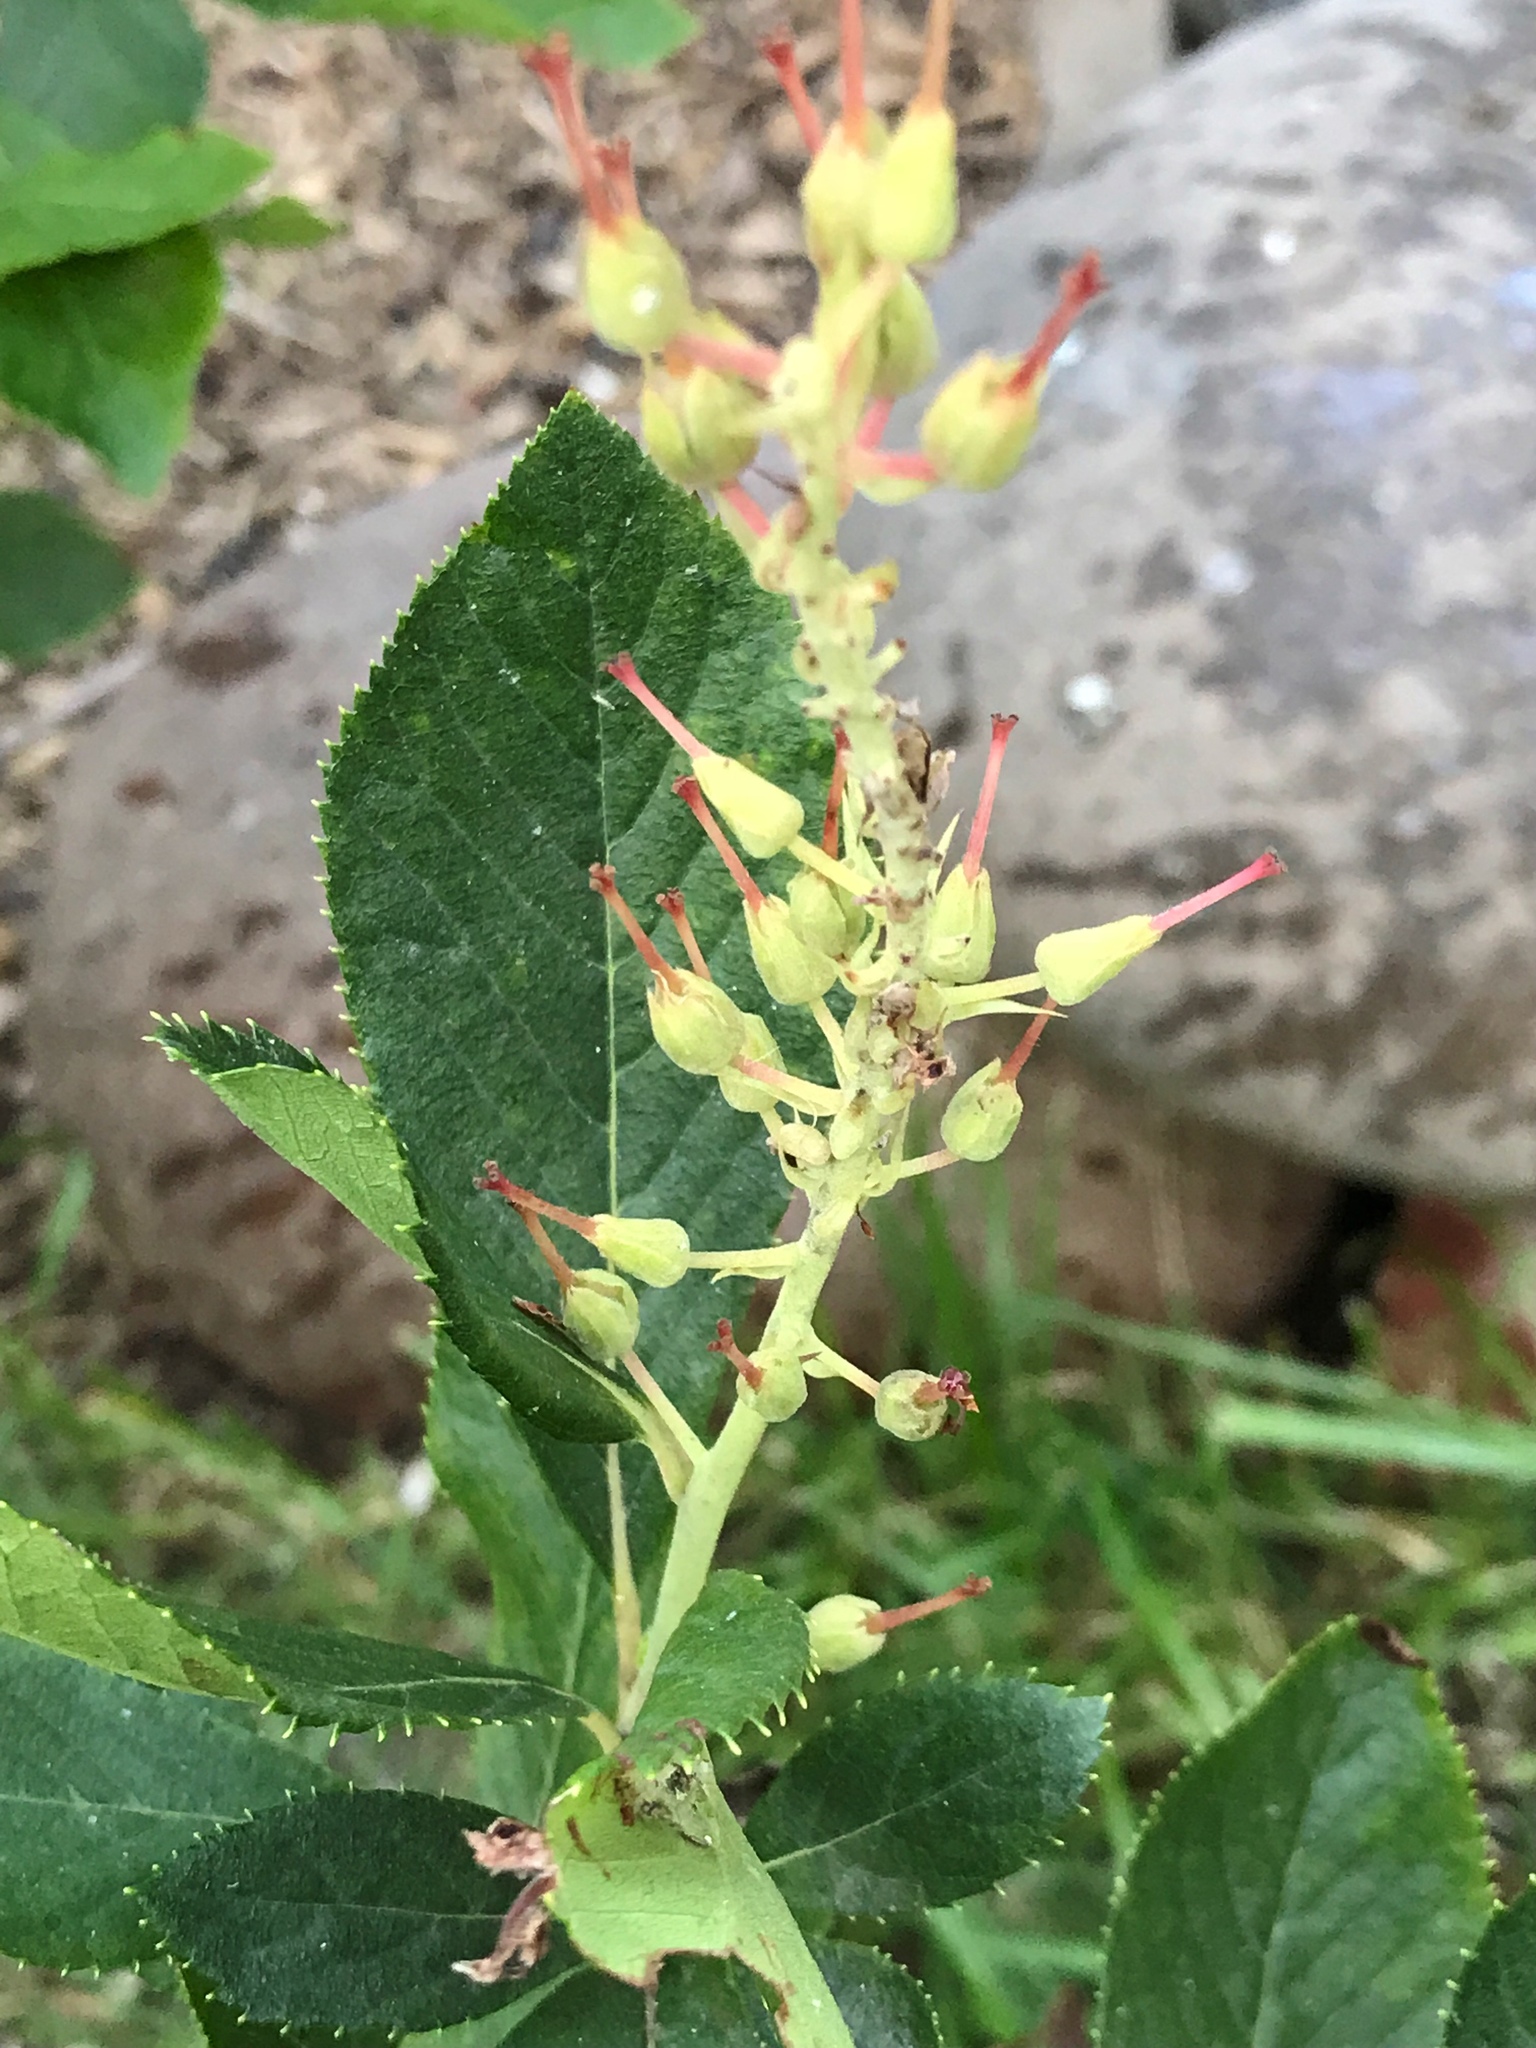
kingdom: Plantae
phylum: Tracheophyta
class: Magnoliopsida
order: Ericales
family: Clethraceae
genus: Clethra
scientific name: Clethra alnifolia
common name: Sweet pepperbush
